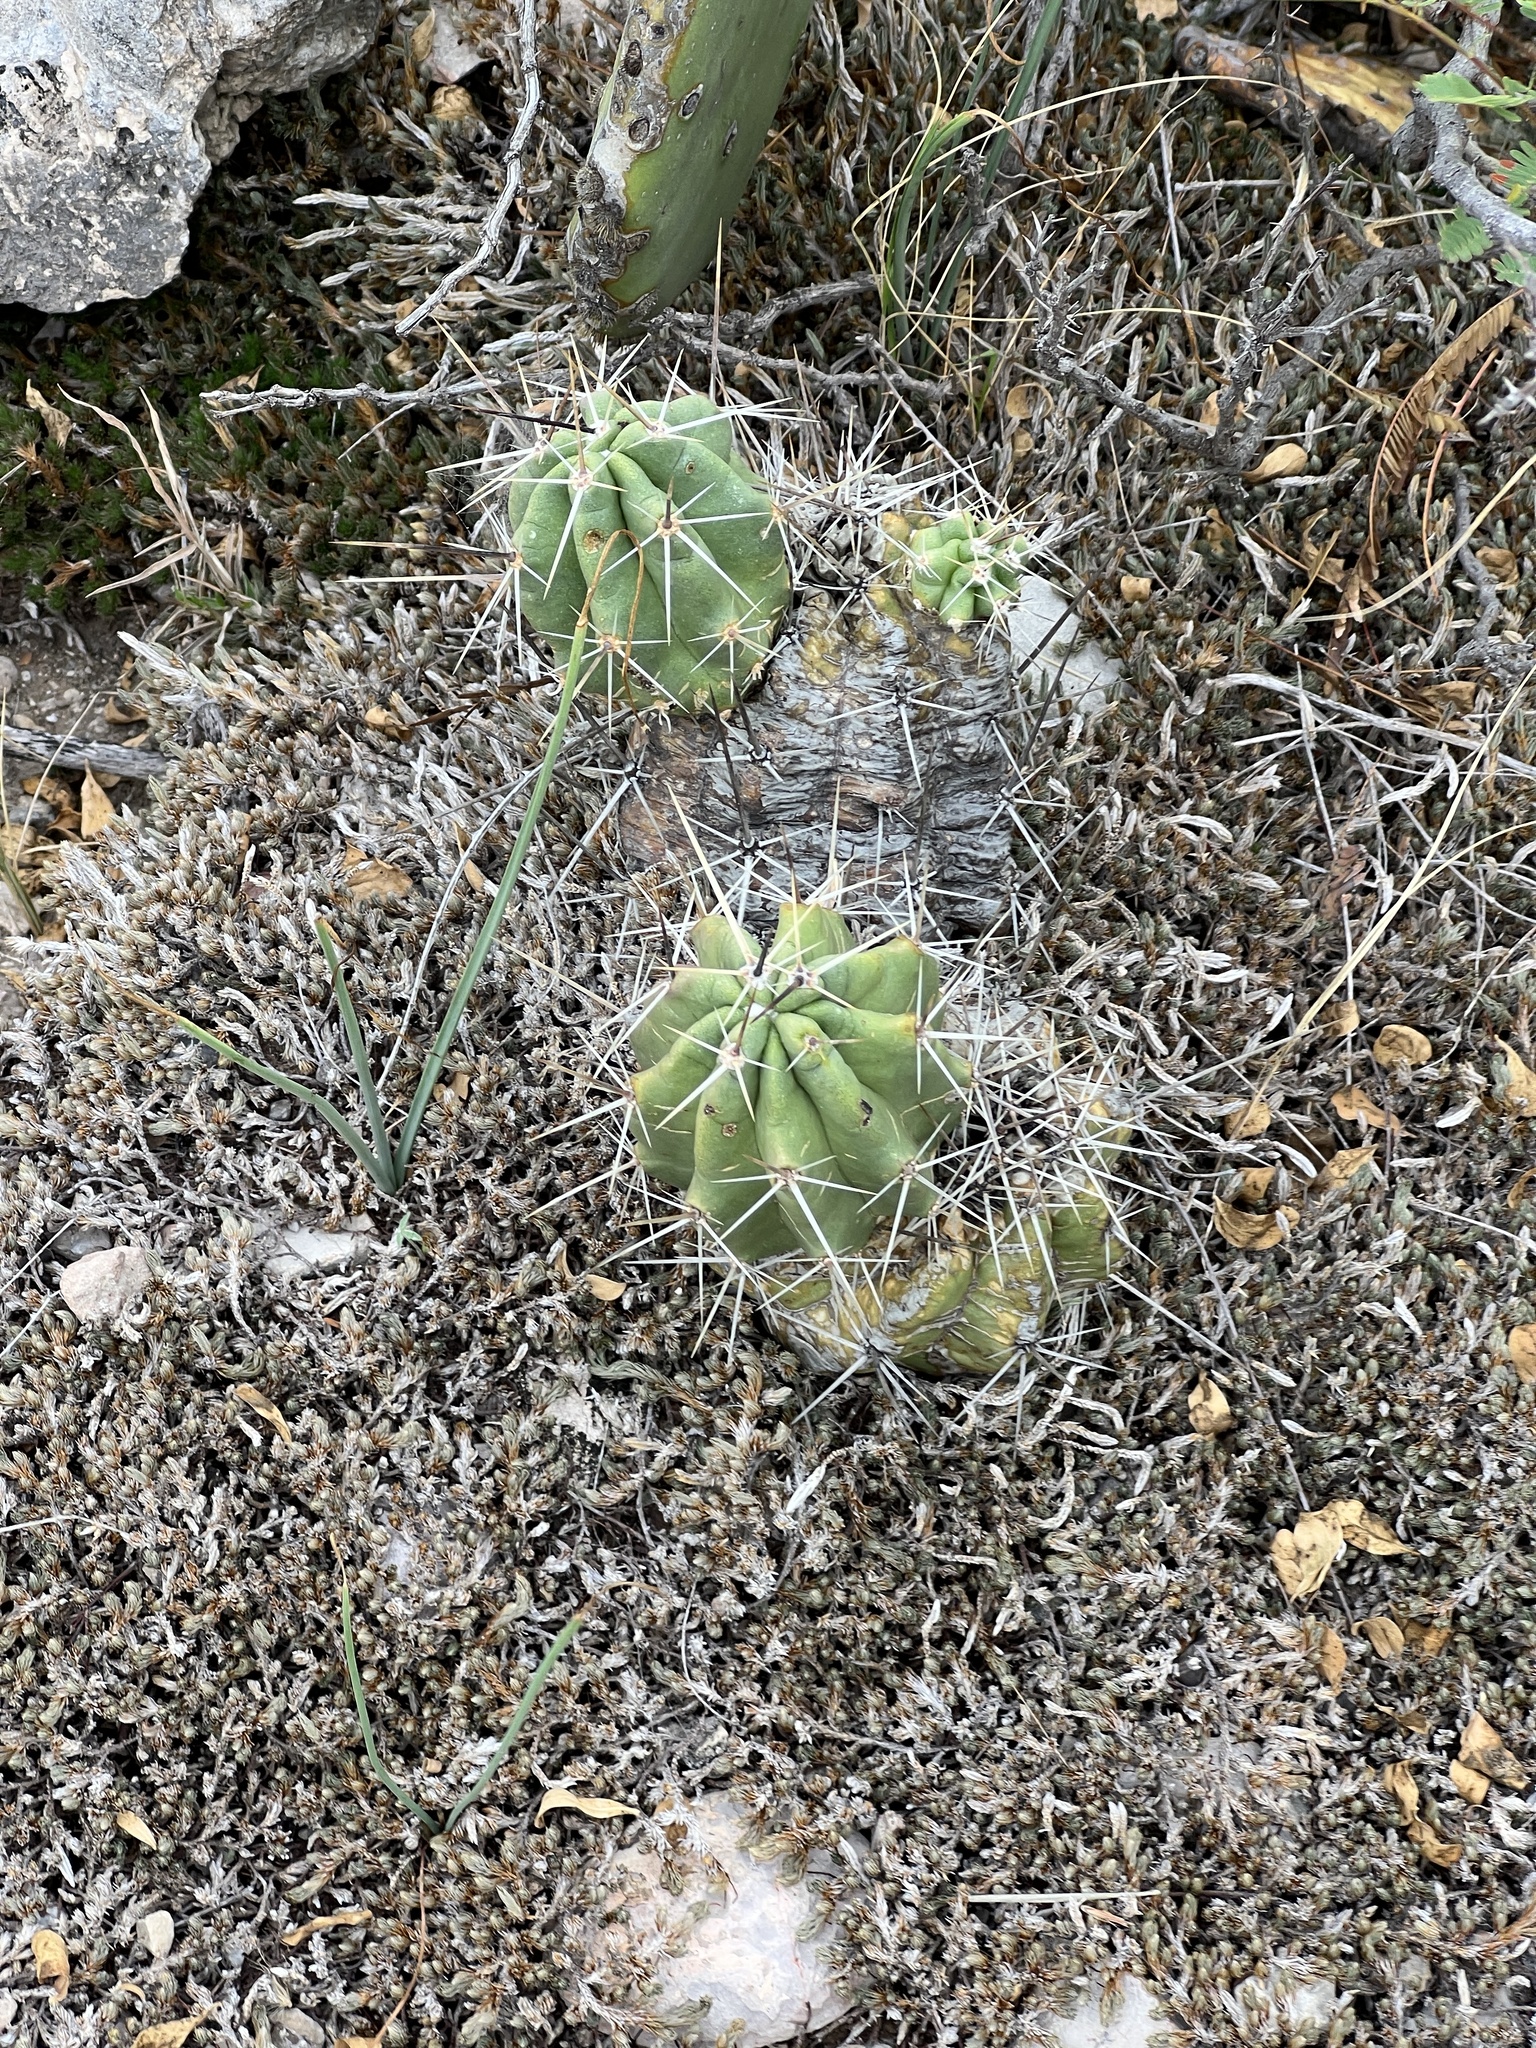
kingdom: Plantae
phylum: Tracheophyta
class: Magnoliopsida
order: Caryophyllales
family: Cactaceae
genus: Echinocereus
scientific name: Echinocereus enneacanthus
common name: Pitaya
